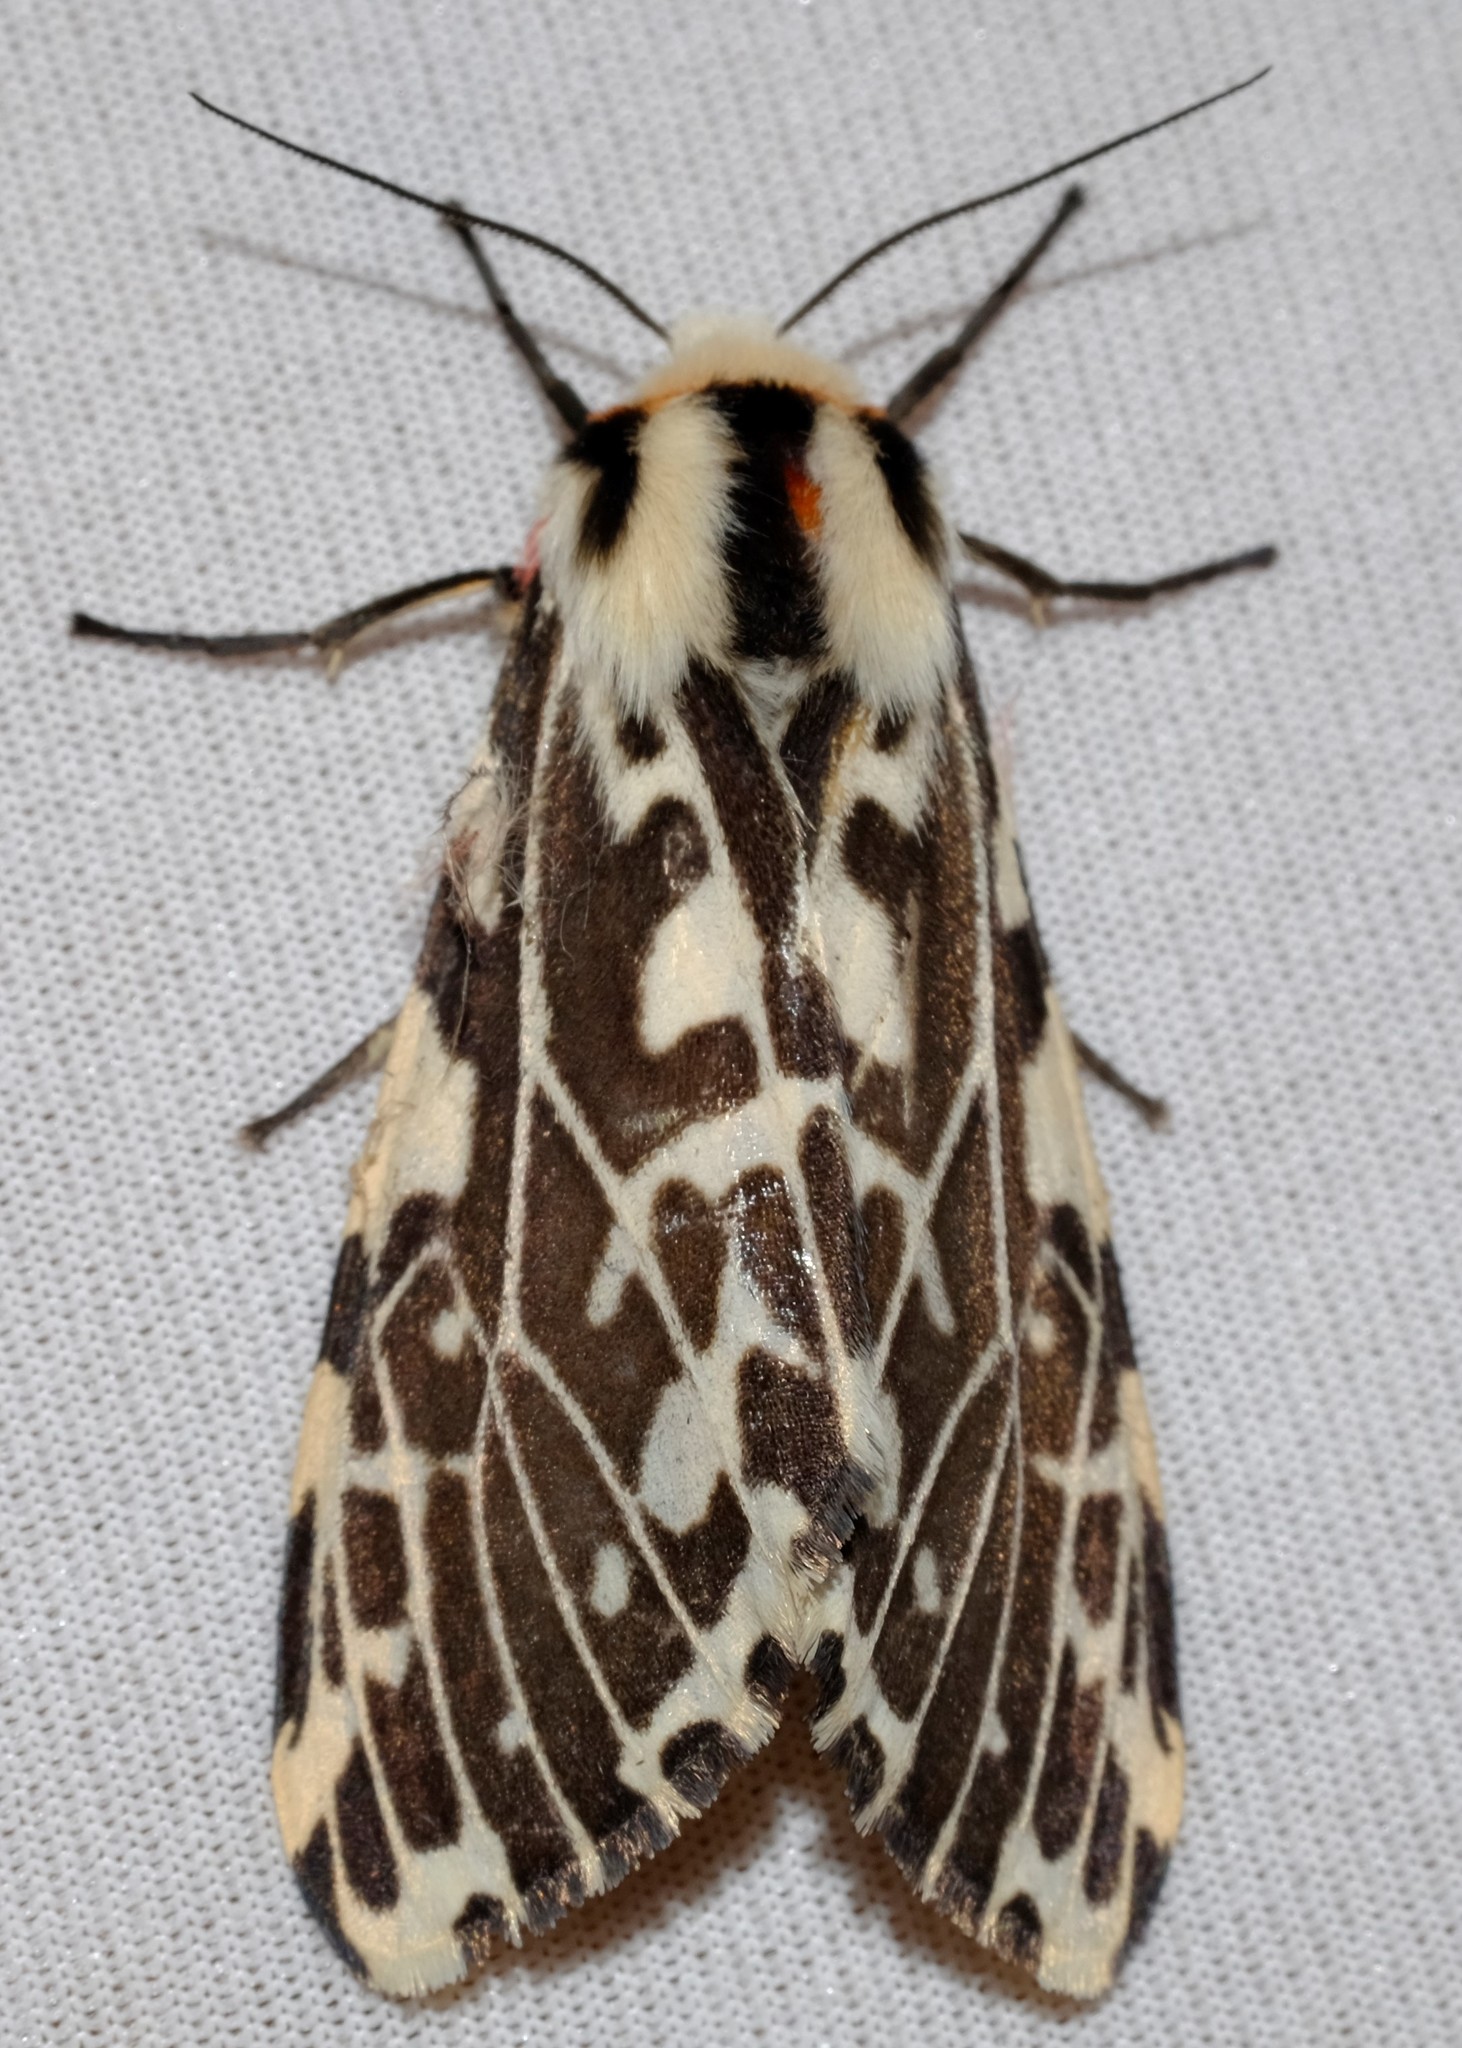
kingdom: Animalia
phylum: Arthropoda
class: Insecta
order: Lepidoptera
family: Erebidae
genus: Ardices
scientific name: Ardices glatignyi
